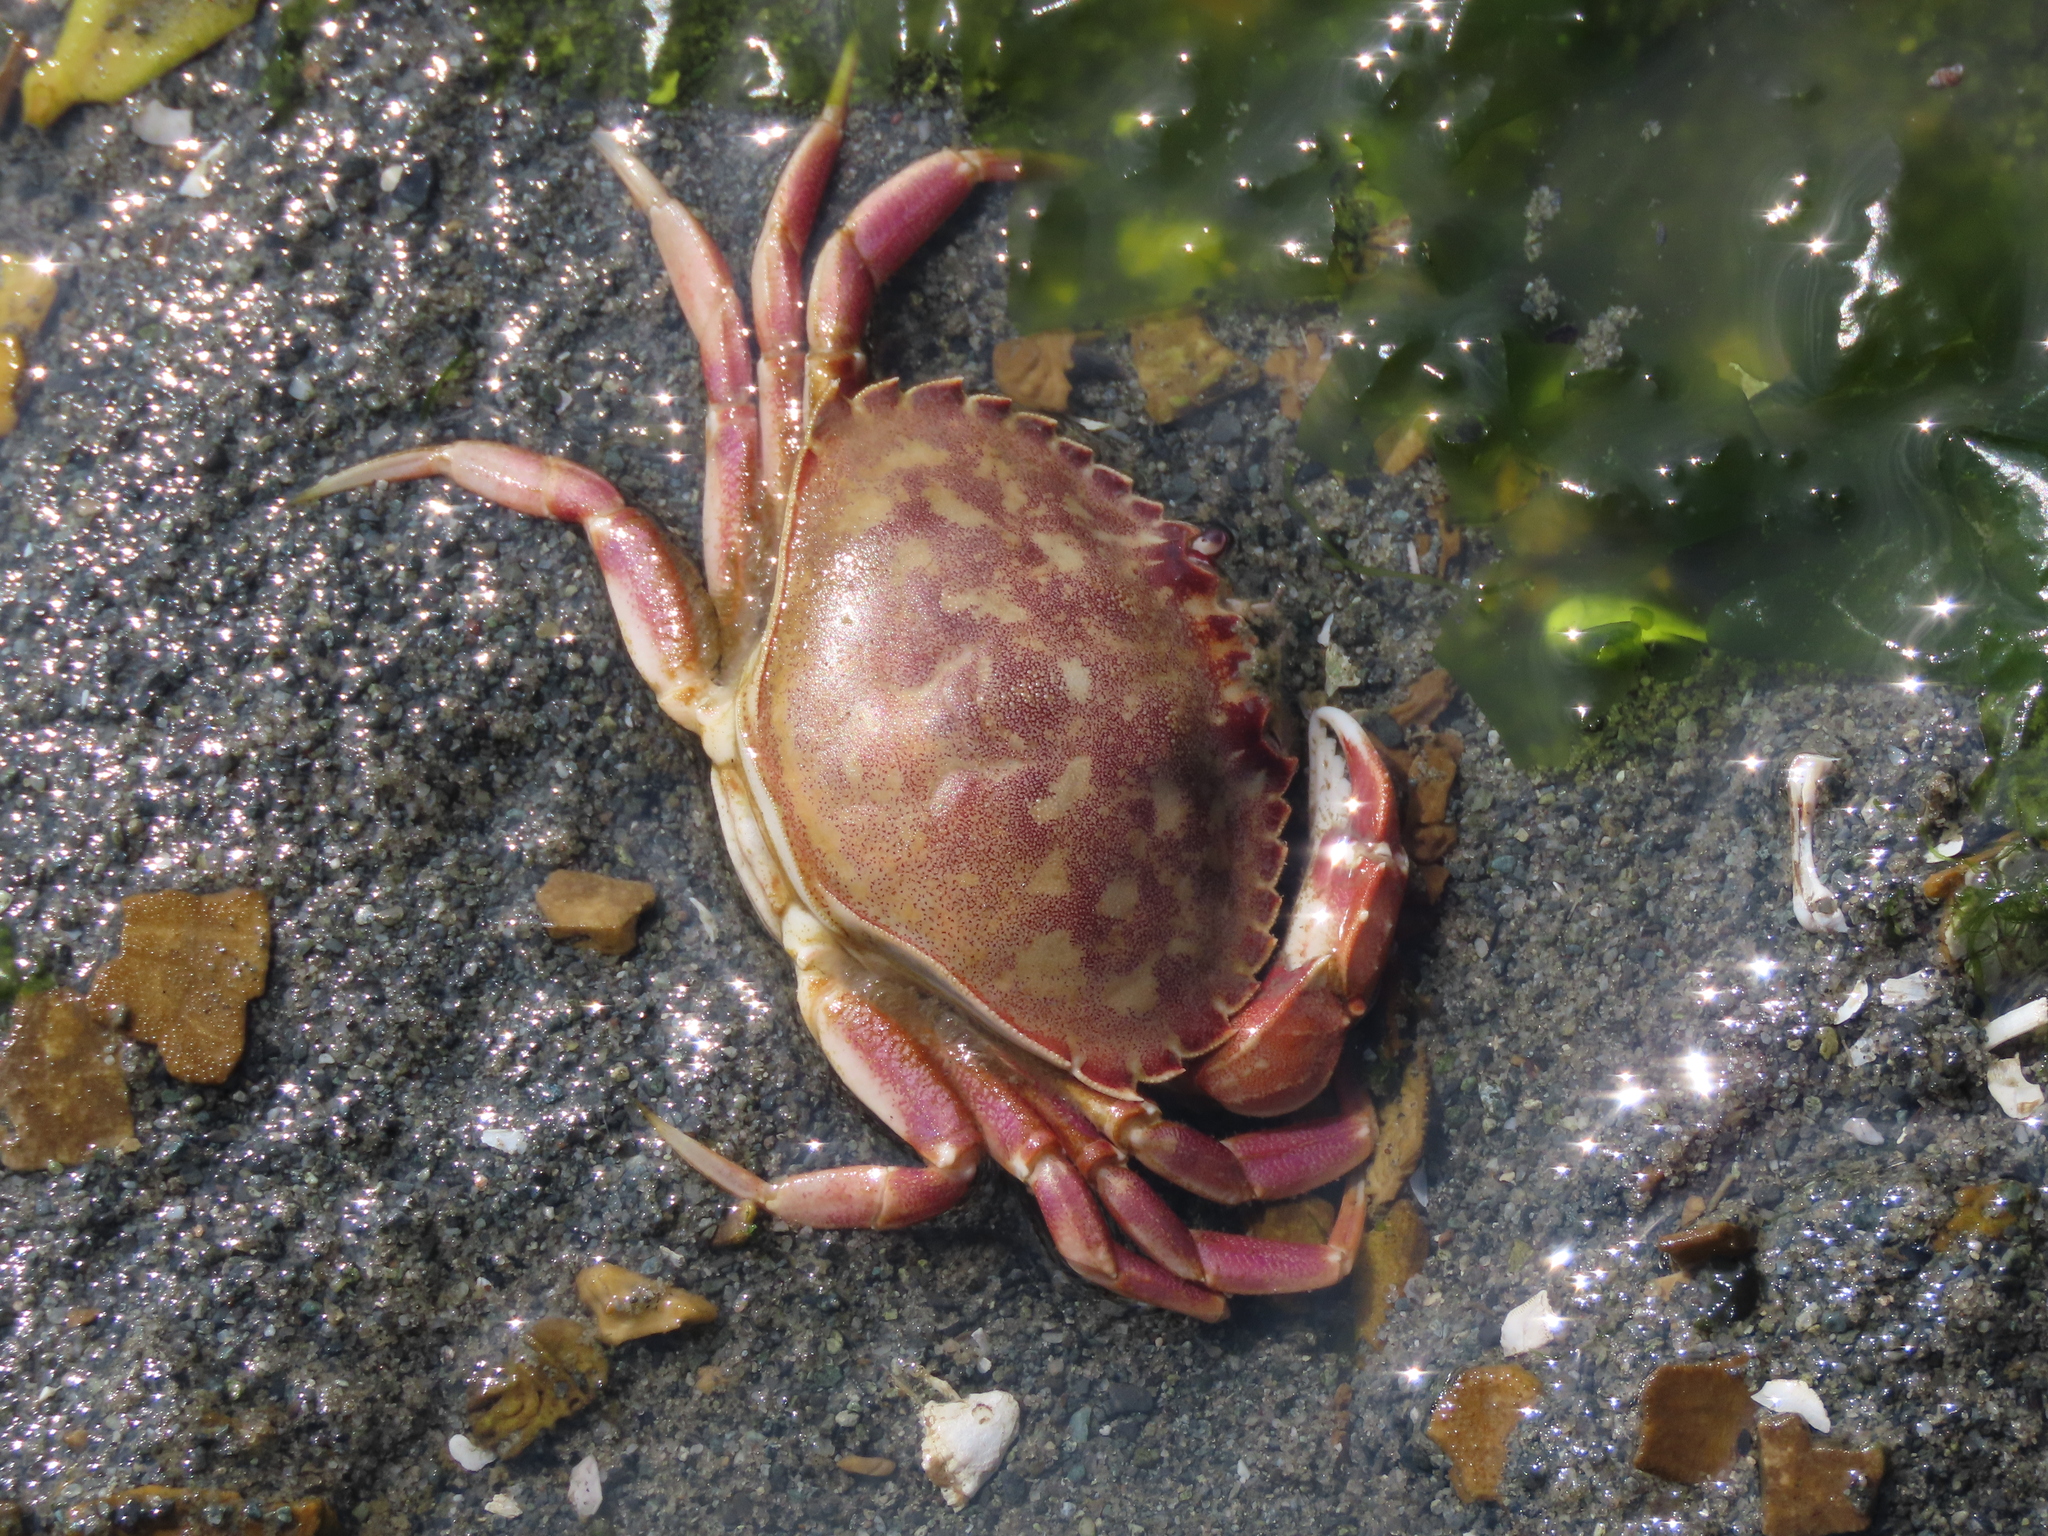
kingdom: Animalia
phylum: Arthropoda
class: Malacostraca
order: Decapoda
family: Cancridae
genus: Metacarcinus
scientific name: Metacarcinus gracilis
